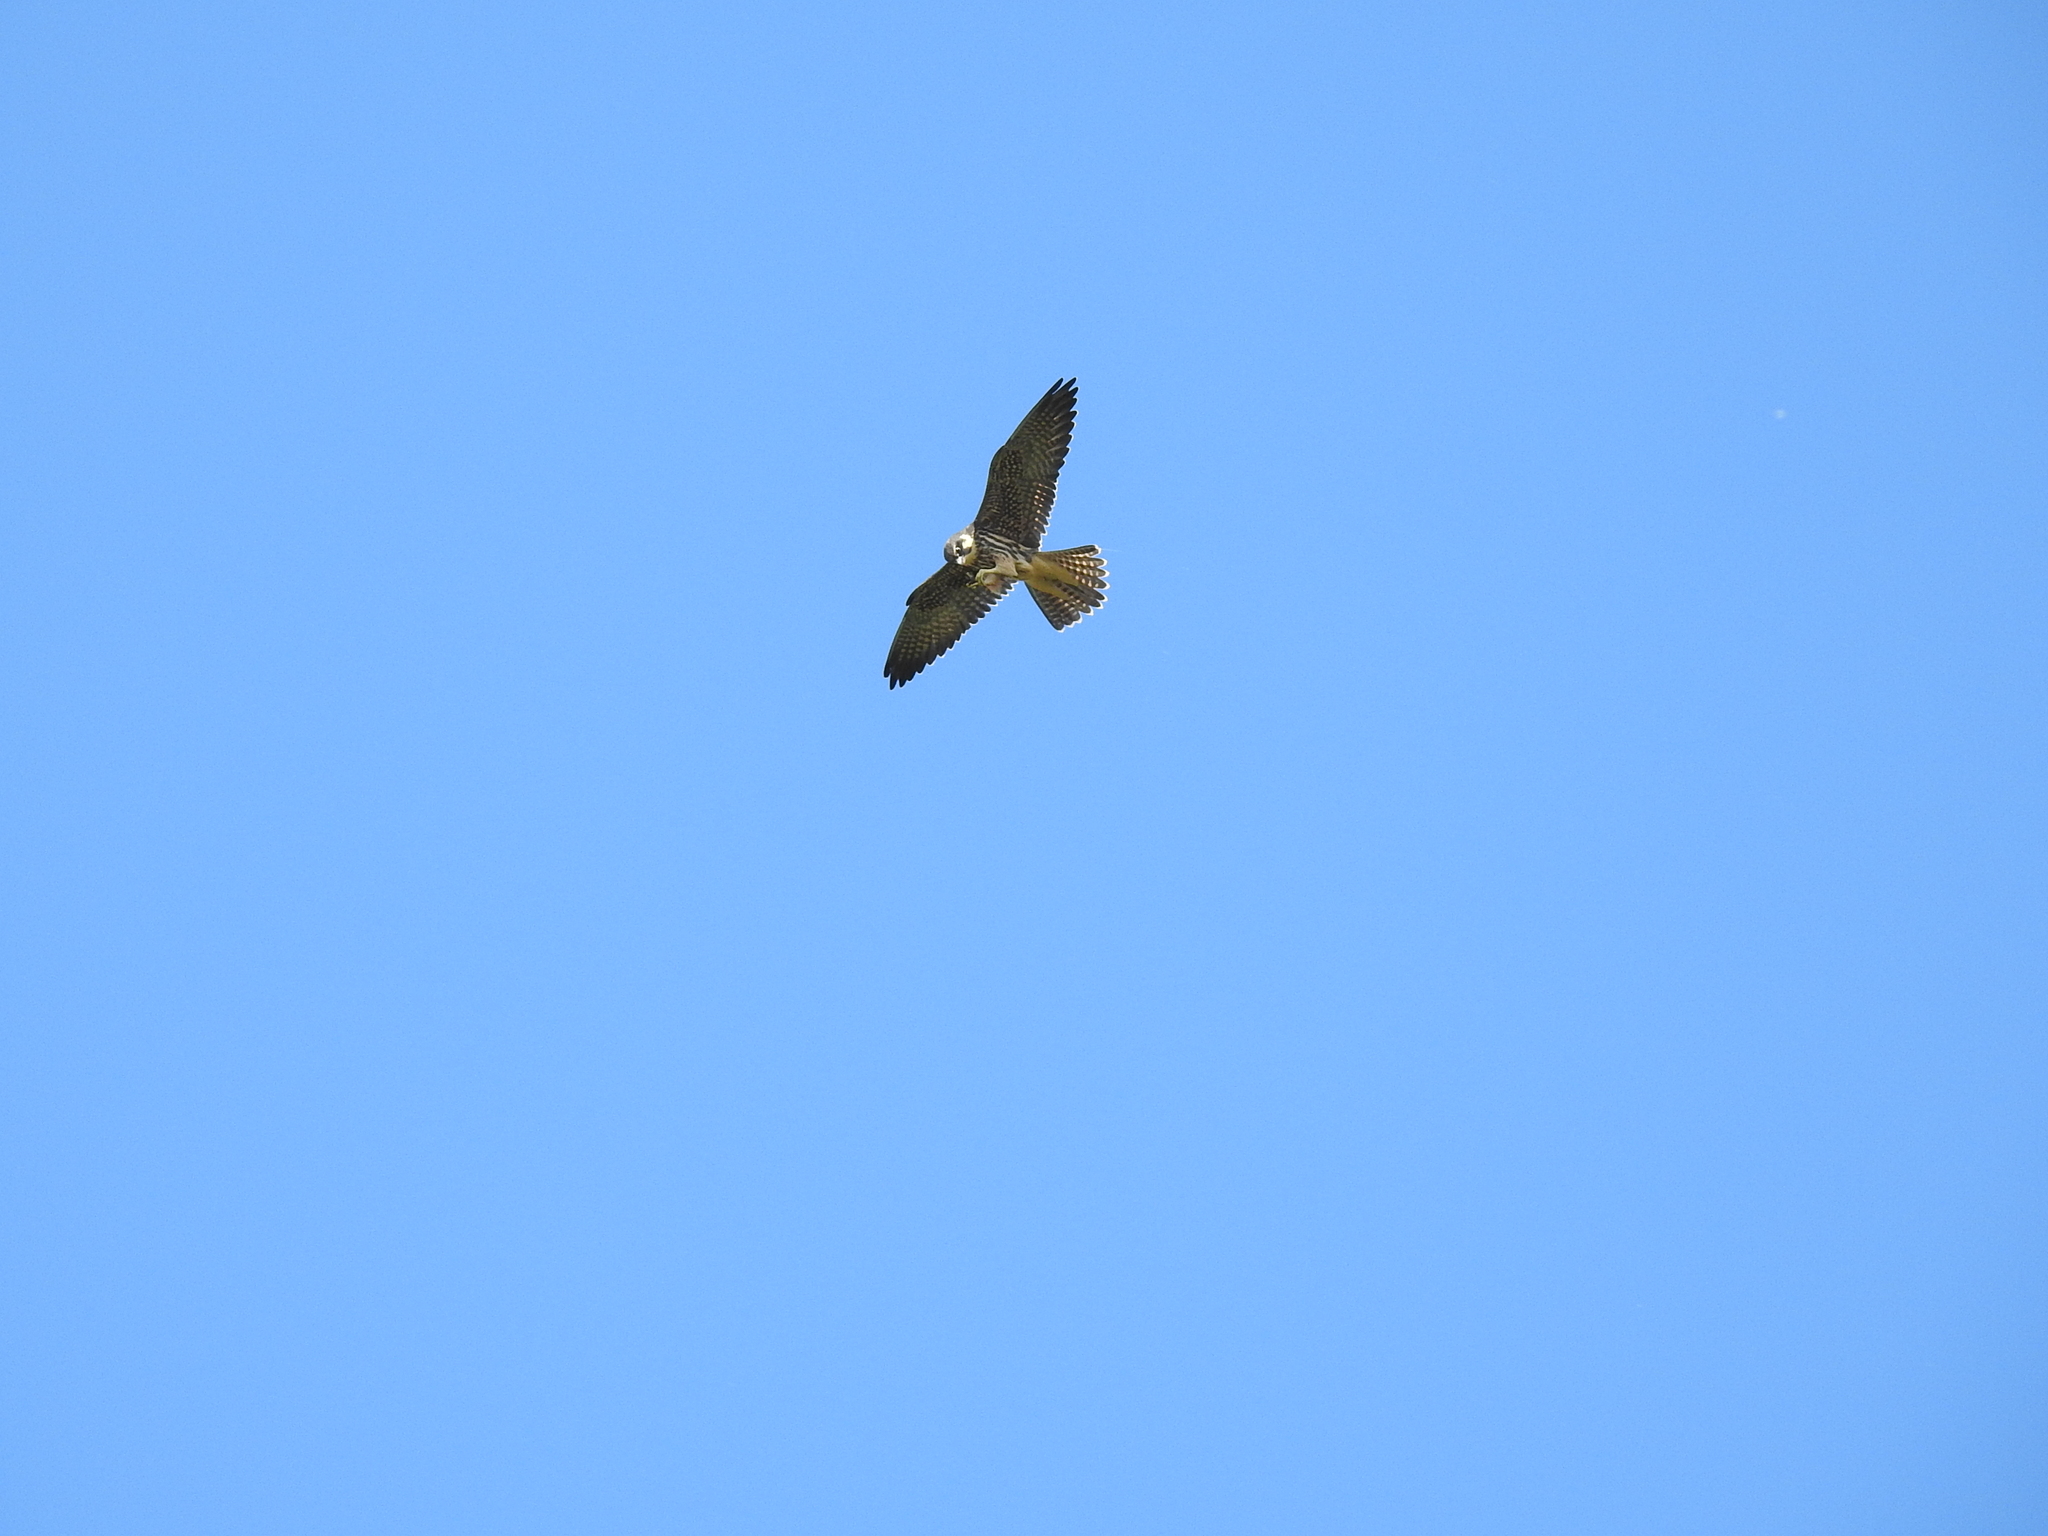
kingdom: Animalia
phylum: Chordata
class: Aves
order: Falconiformes
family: Falconidae
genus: Falco
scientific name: Falco subbuteo
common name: Eurasian hobby
